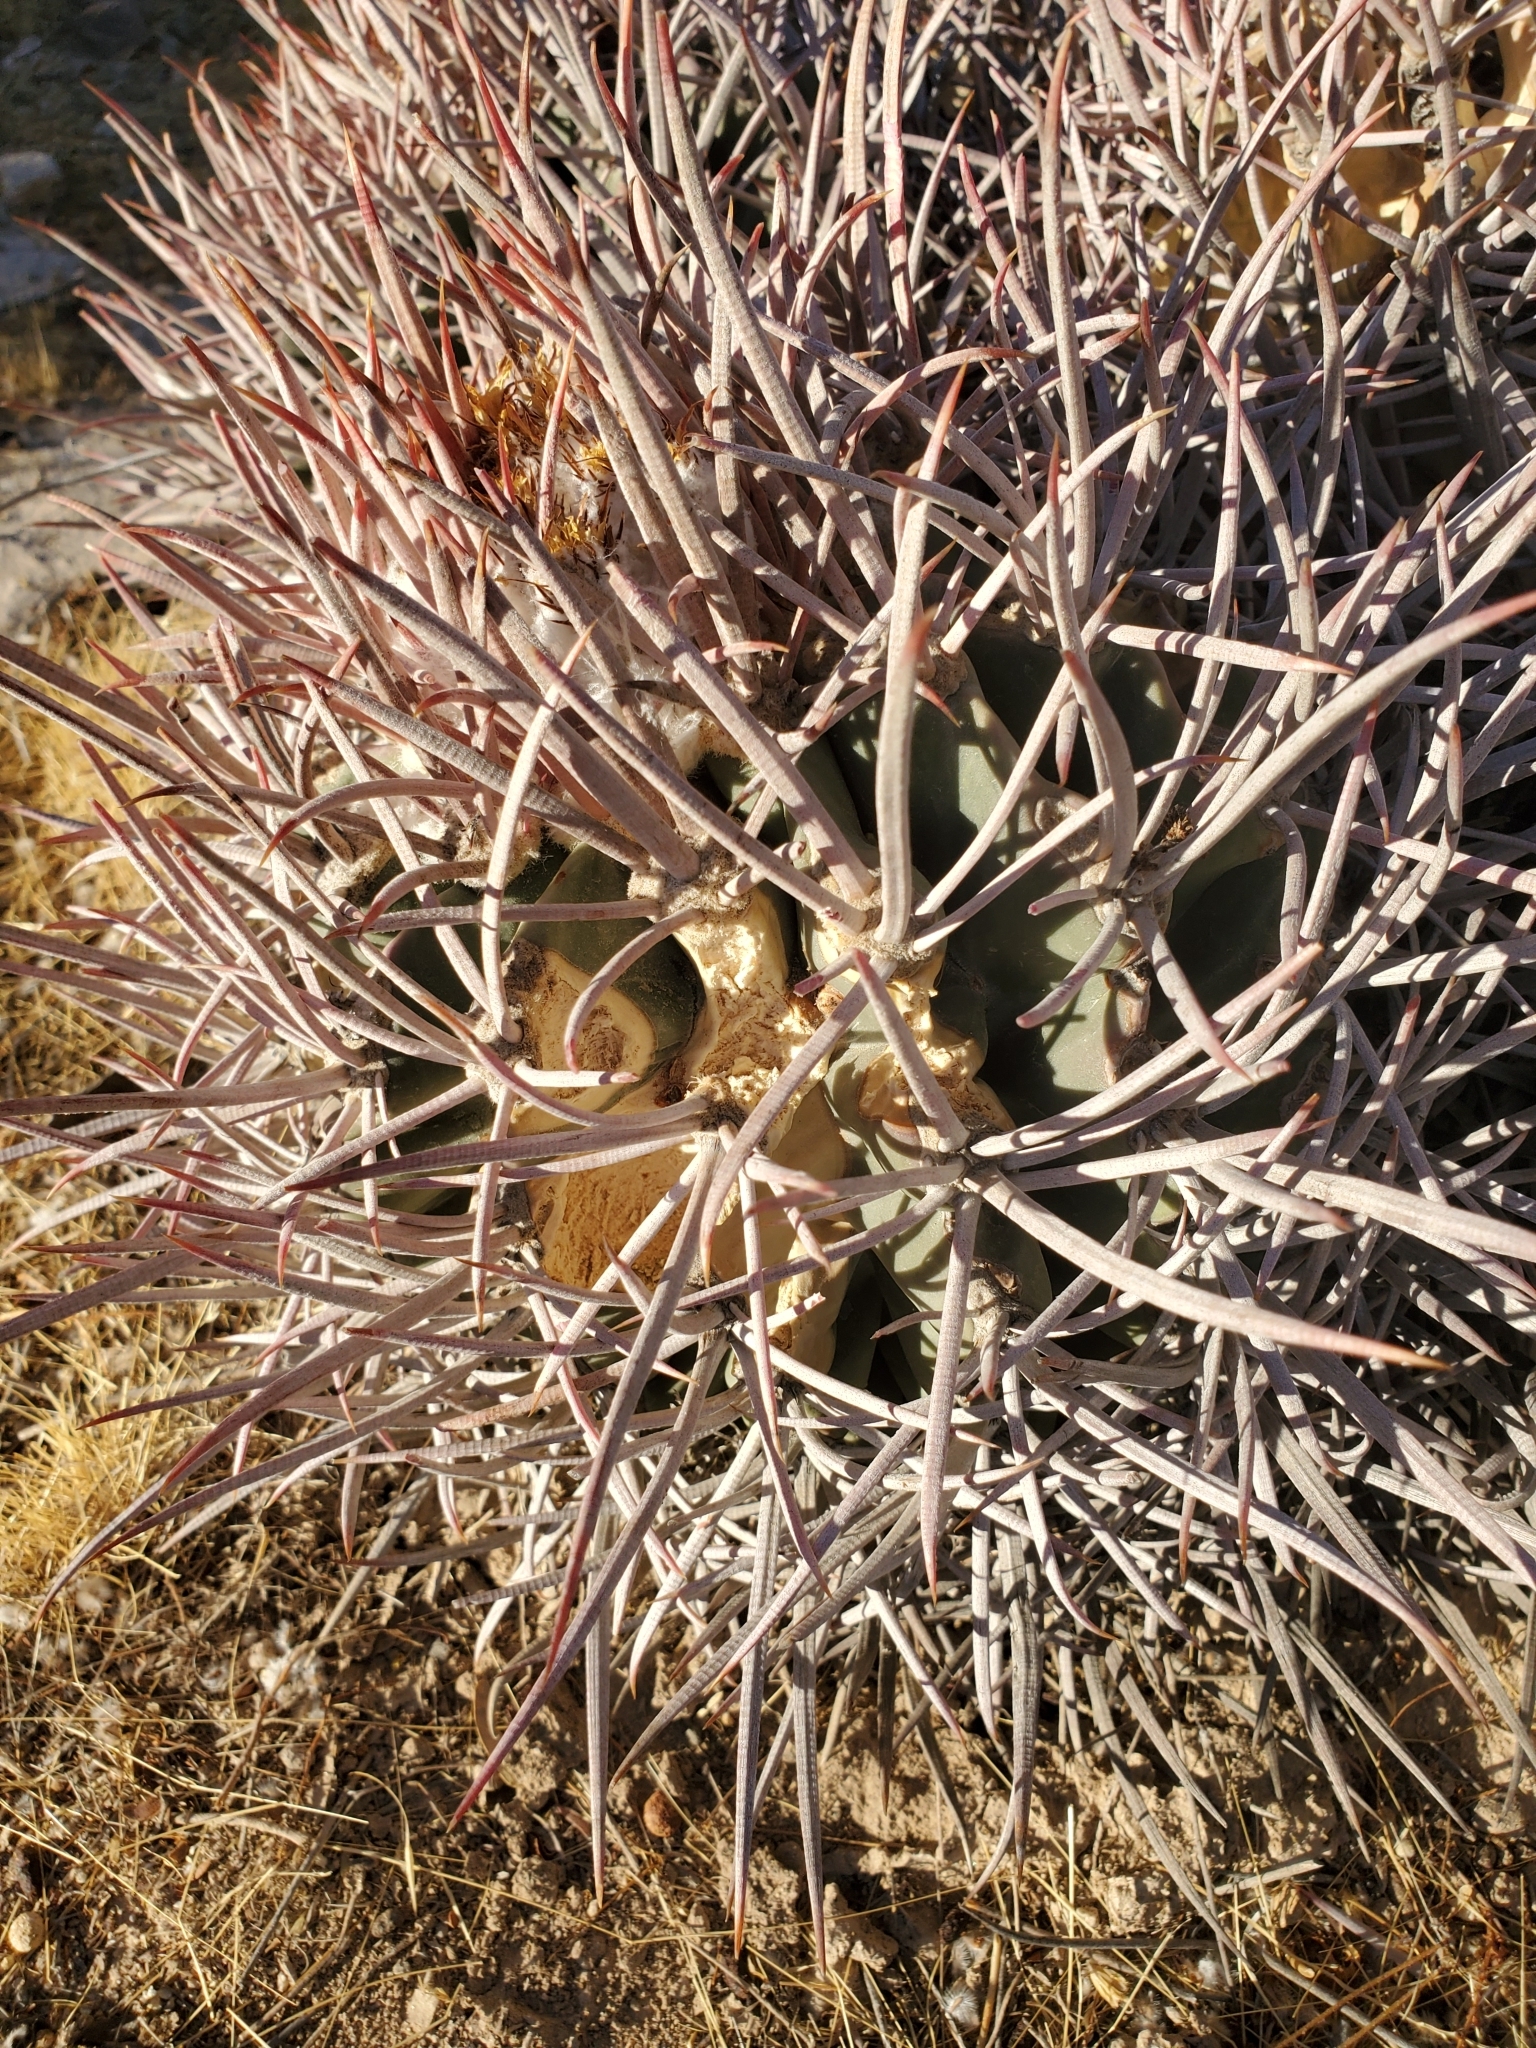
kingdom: Plantae
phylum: Tracheophyta
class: Magnoliopsida
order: Caryophyllales
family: Cactaceae
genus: Echinocactus
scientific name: Echinocactus polycephalus
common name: Cottontop cactus
